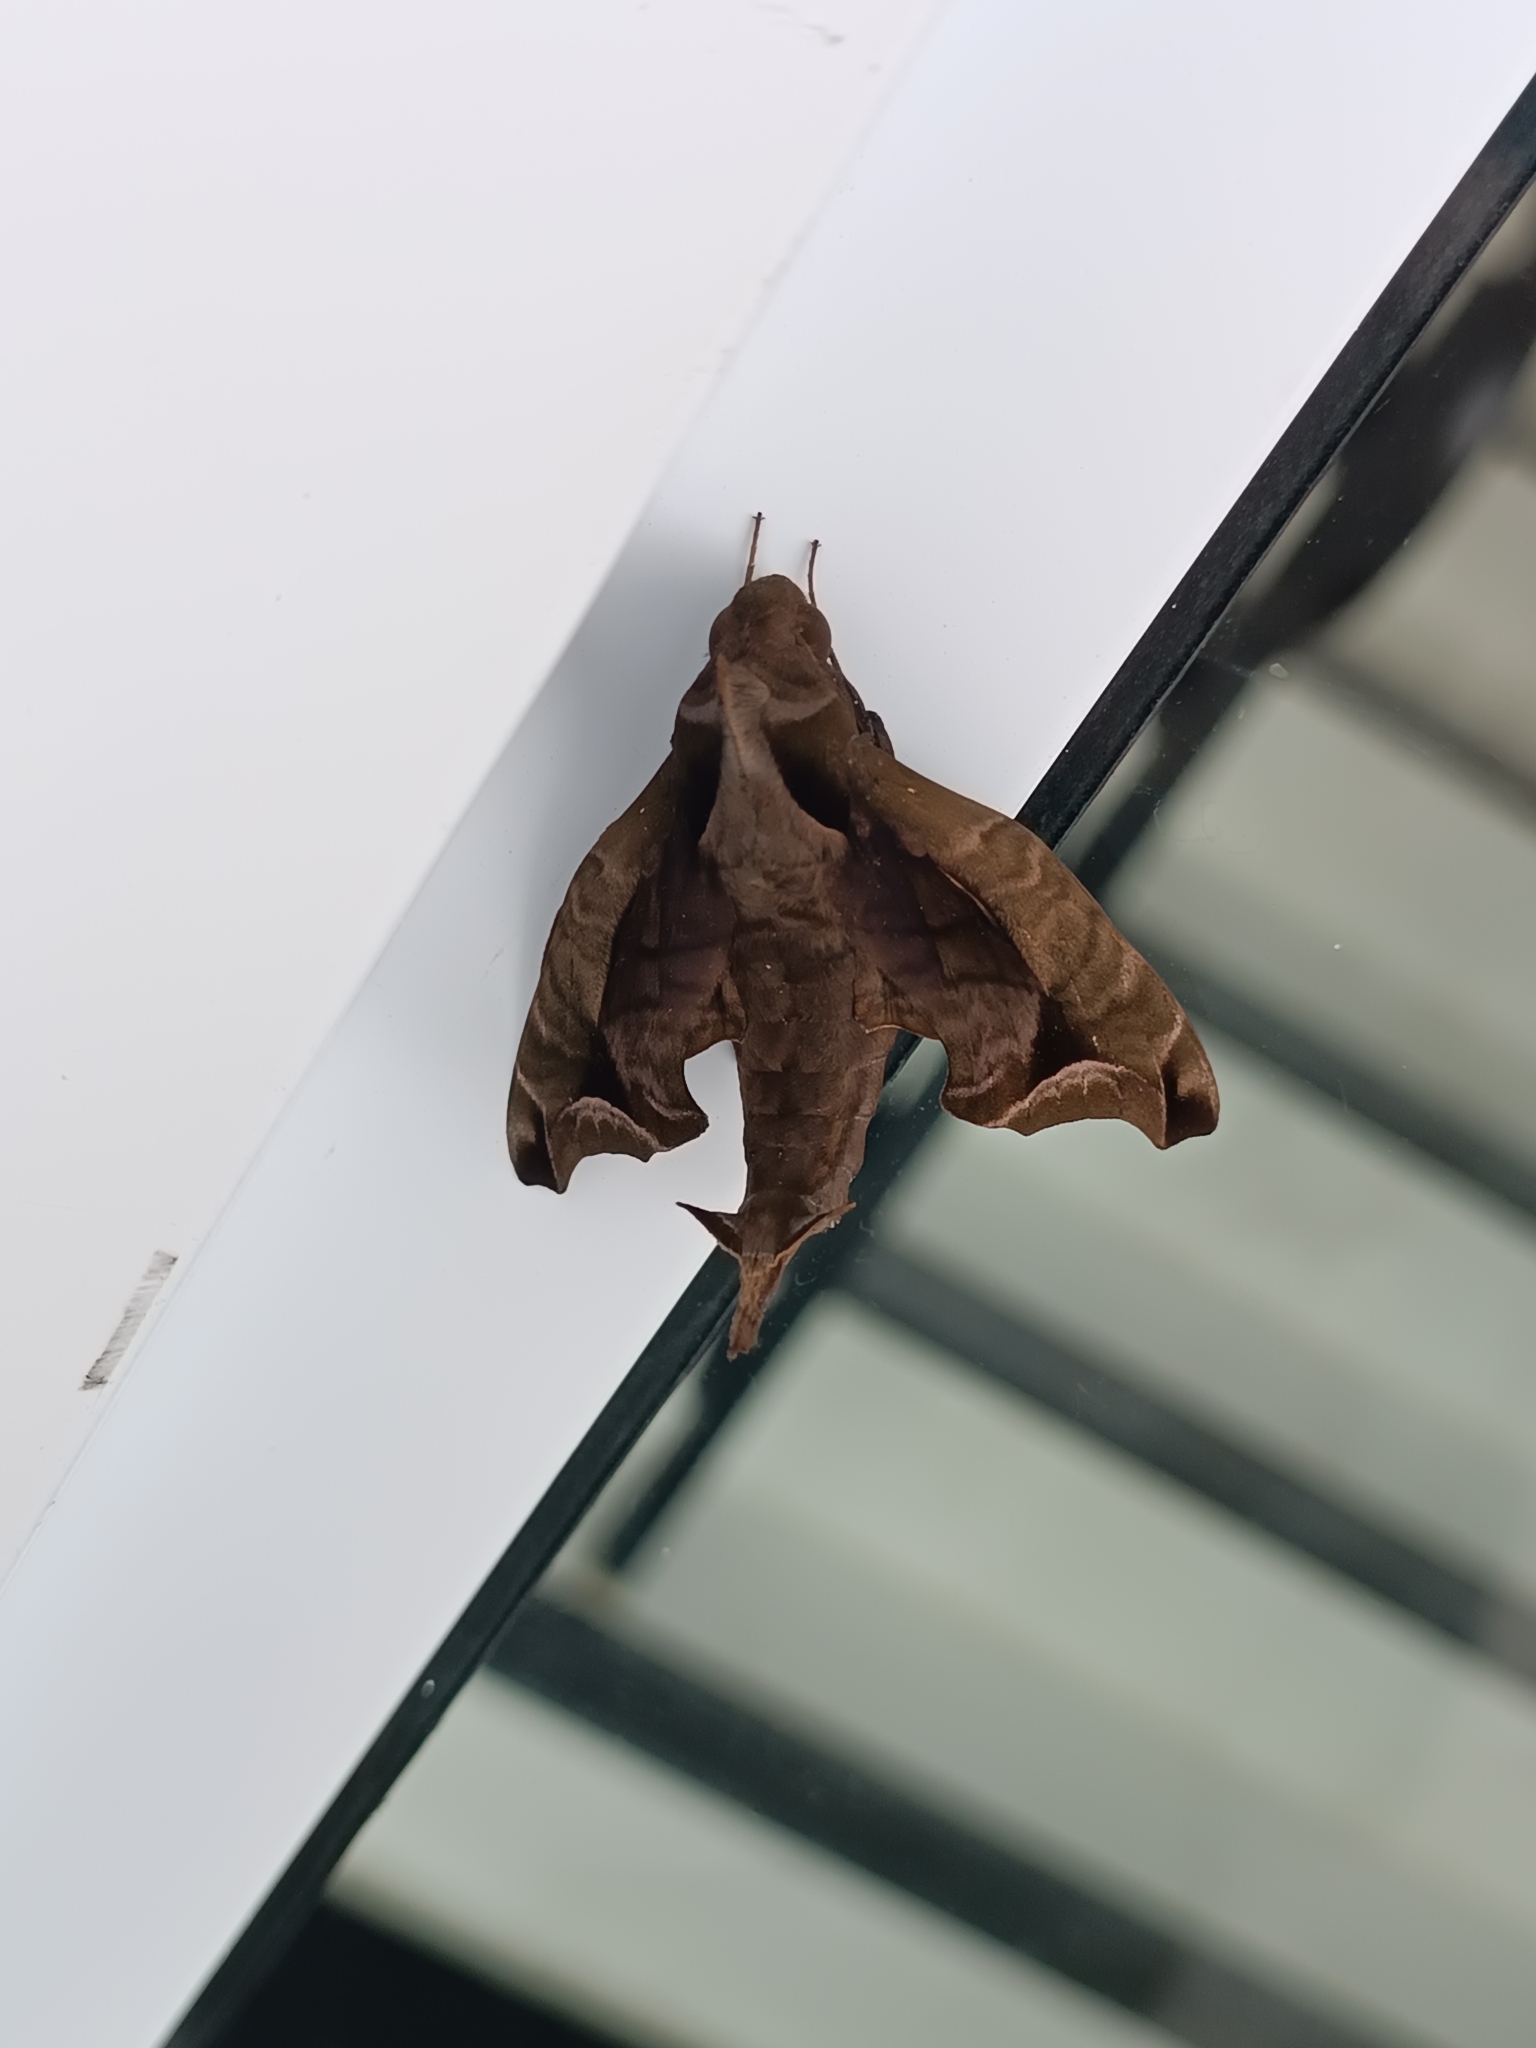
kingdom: Animalia
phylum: Arthropoda
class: Insecta
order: Lepidoptera
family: Sphingidae
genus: Enyo
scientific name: Enyo gorgon
